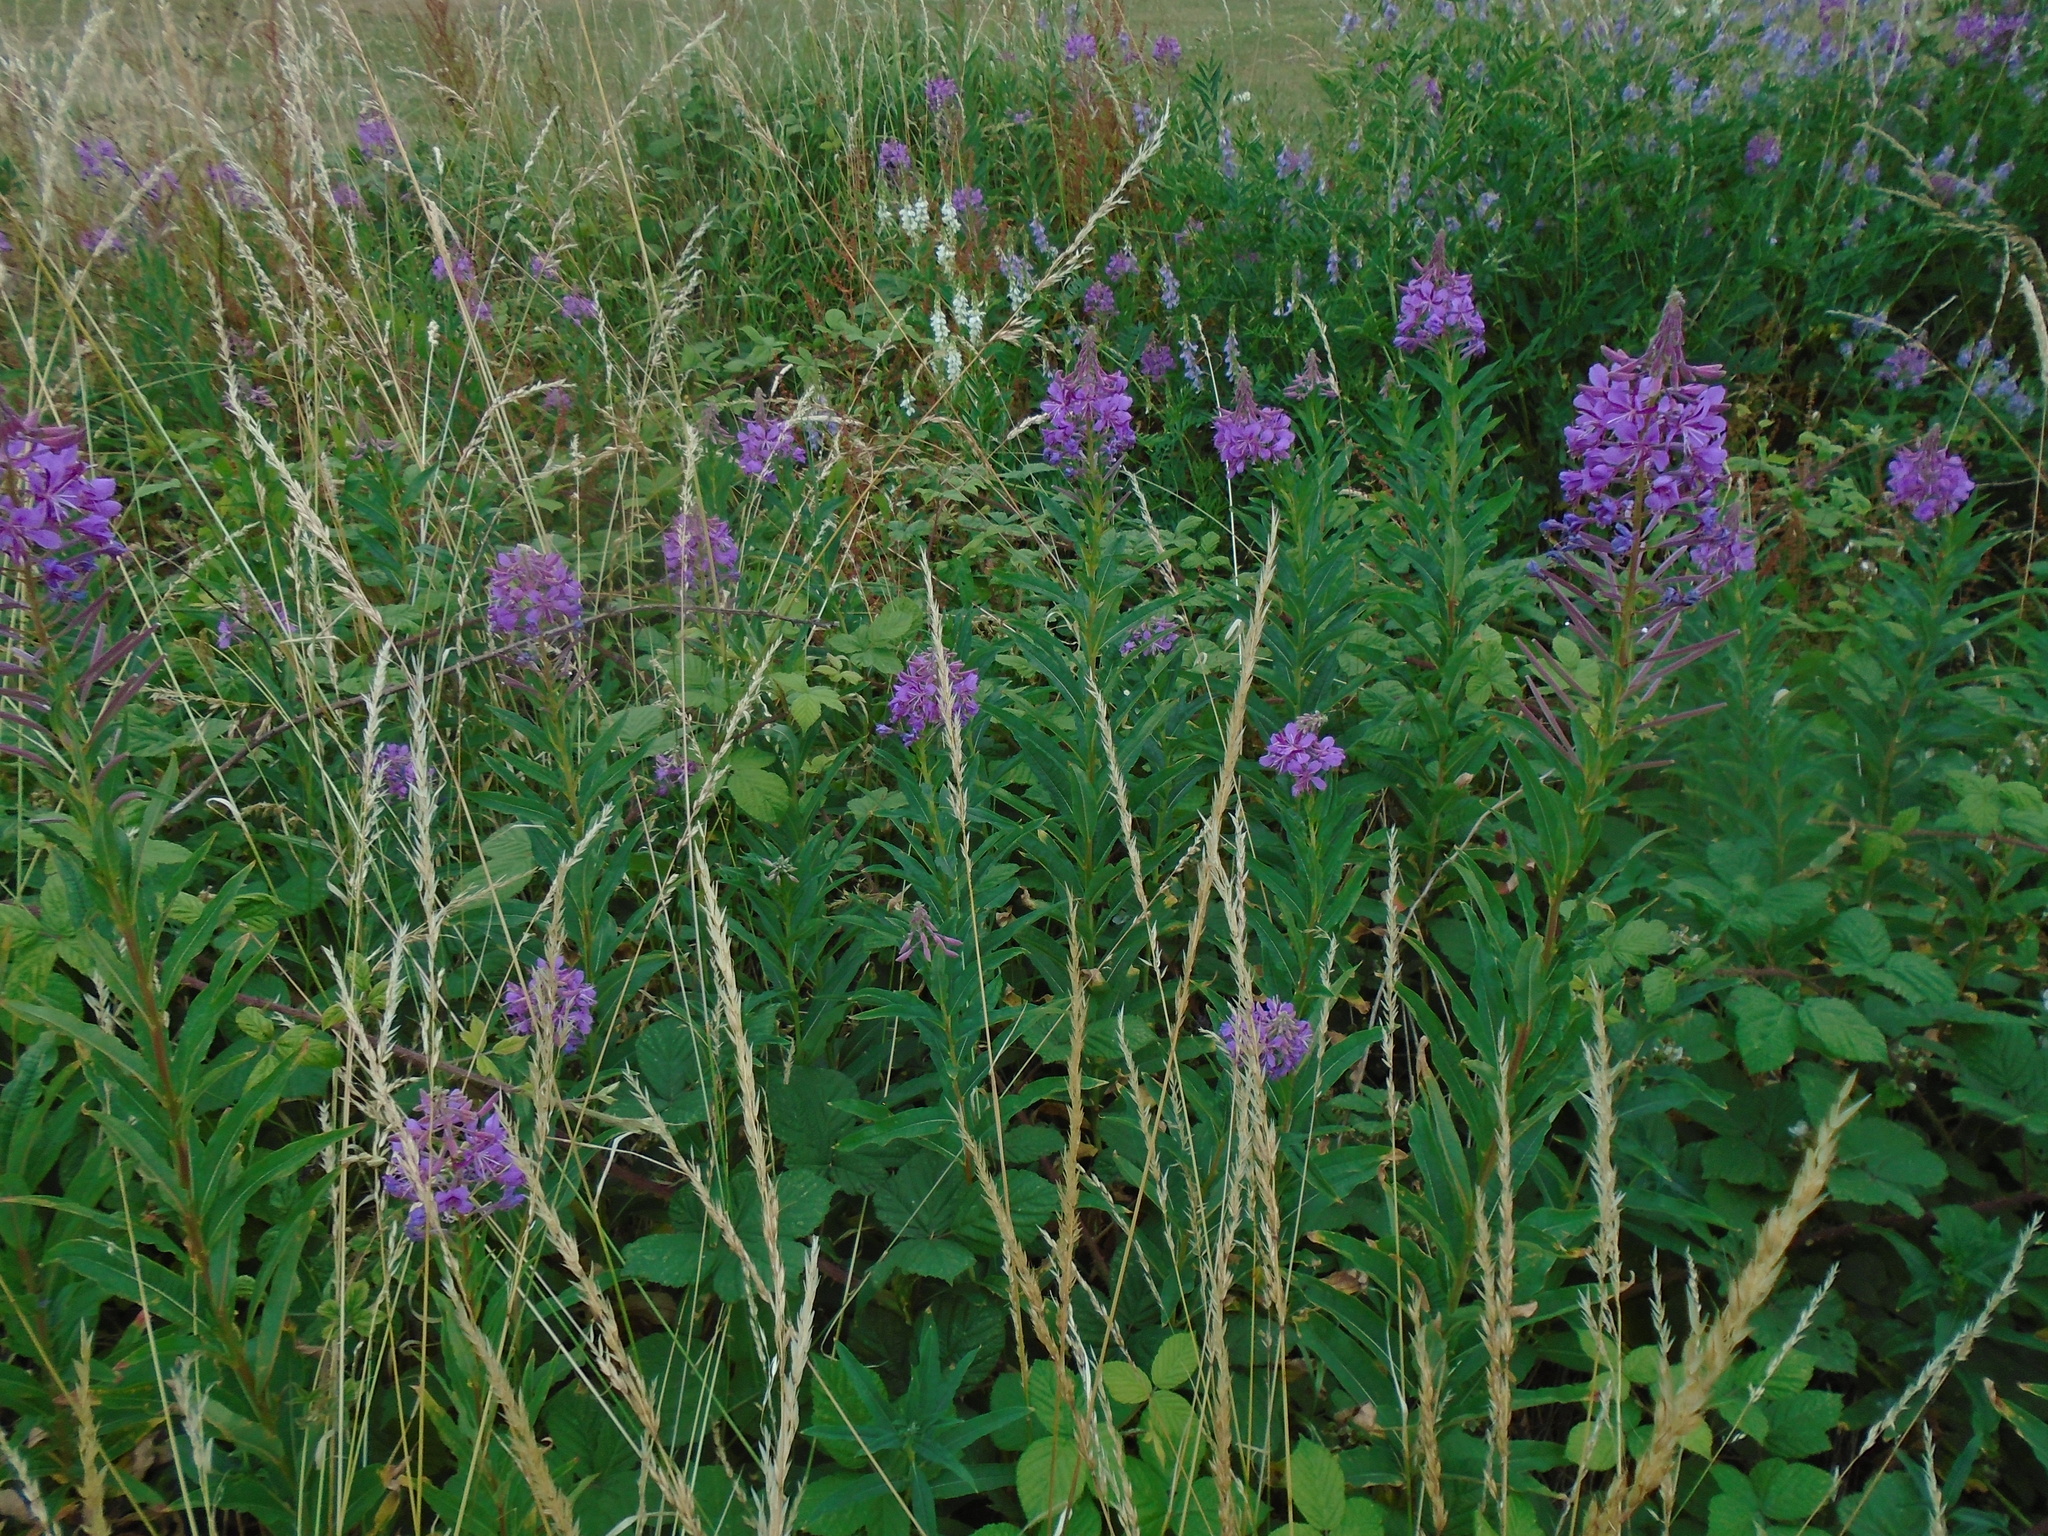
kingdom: Plantae
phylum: Tracheophyta
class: Magnoliopsida
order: Myrtales
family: Onagraceae
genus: Chamaenerion
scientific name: Chamaenerion angustifolium
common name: Fireweed
